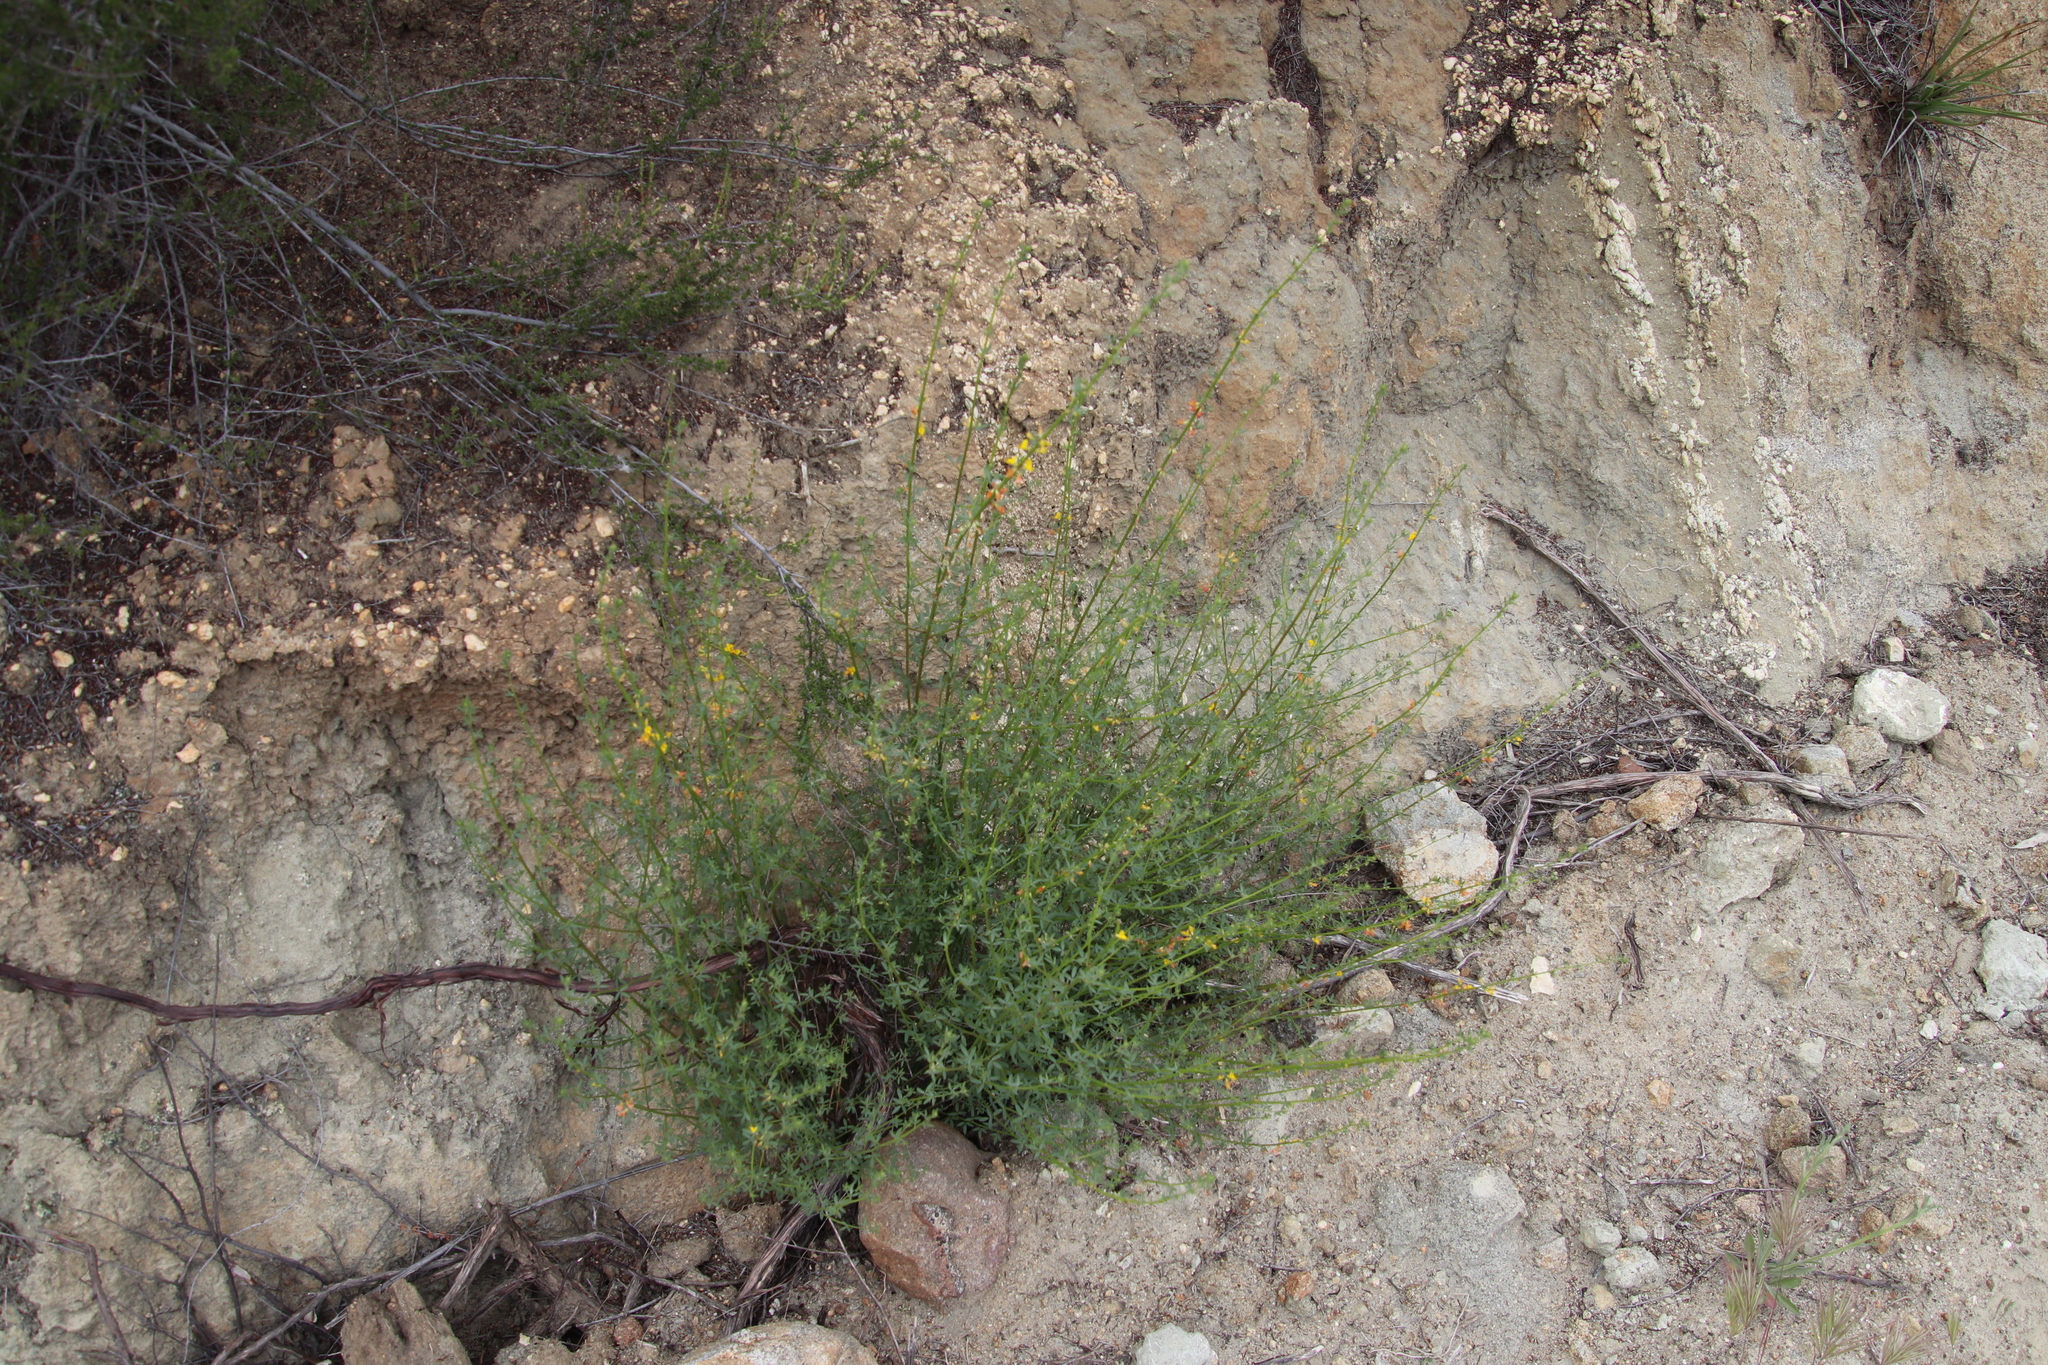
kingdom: Plantae
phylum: Tracheophyta
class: Magnoliopsida
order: Fabales
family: Fabaceae
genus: Acmispon
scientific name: Acmispon glaber
